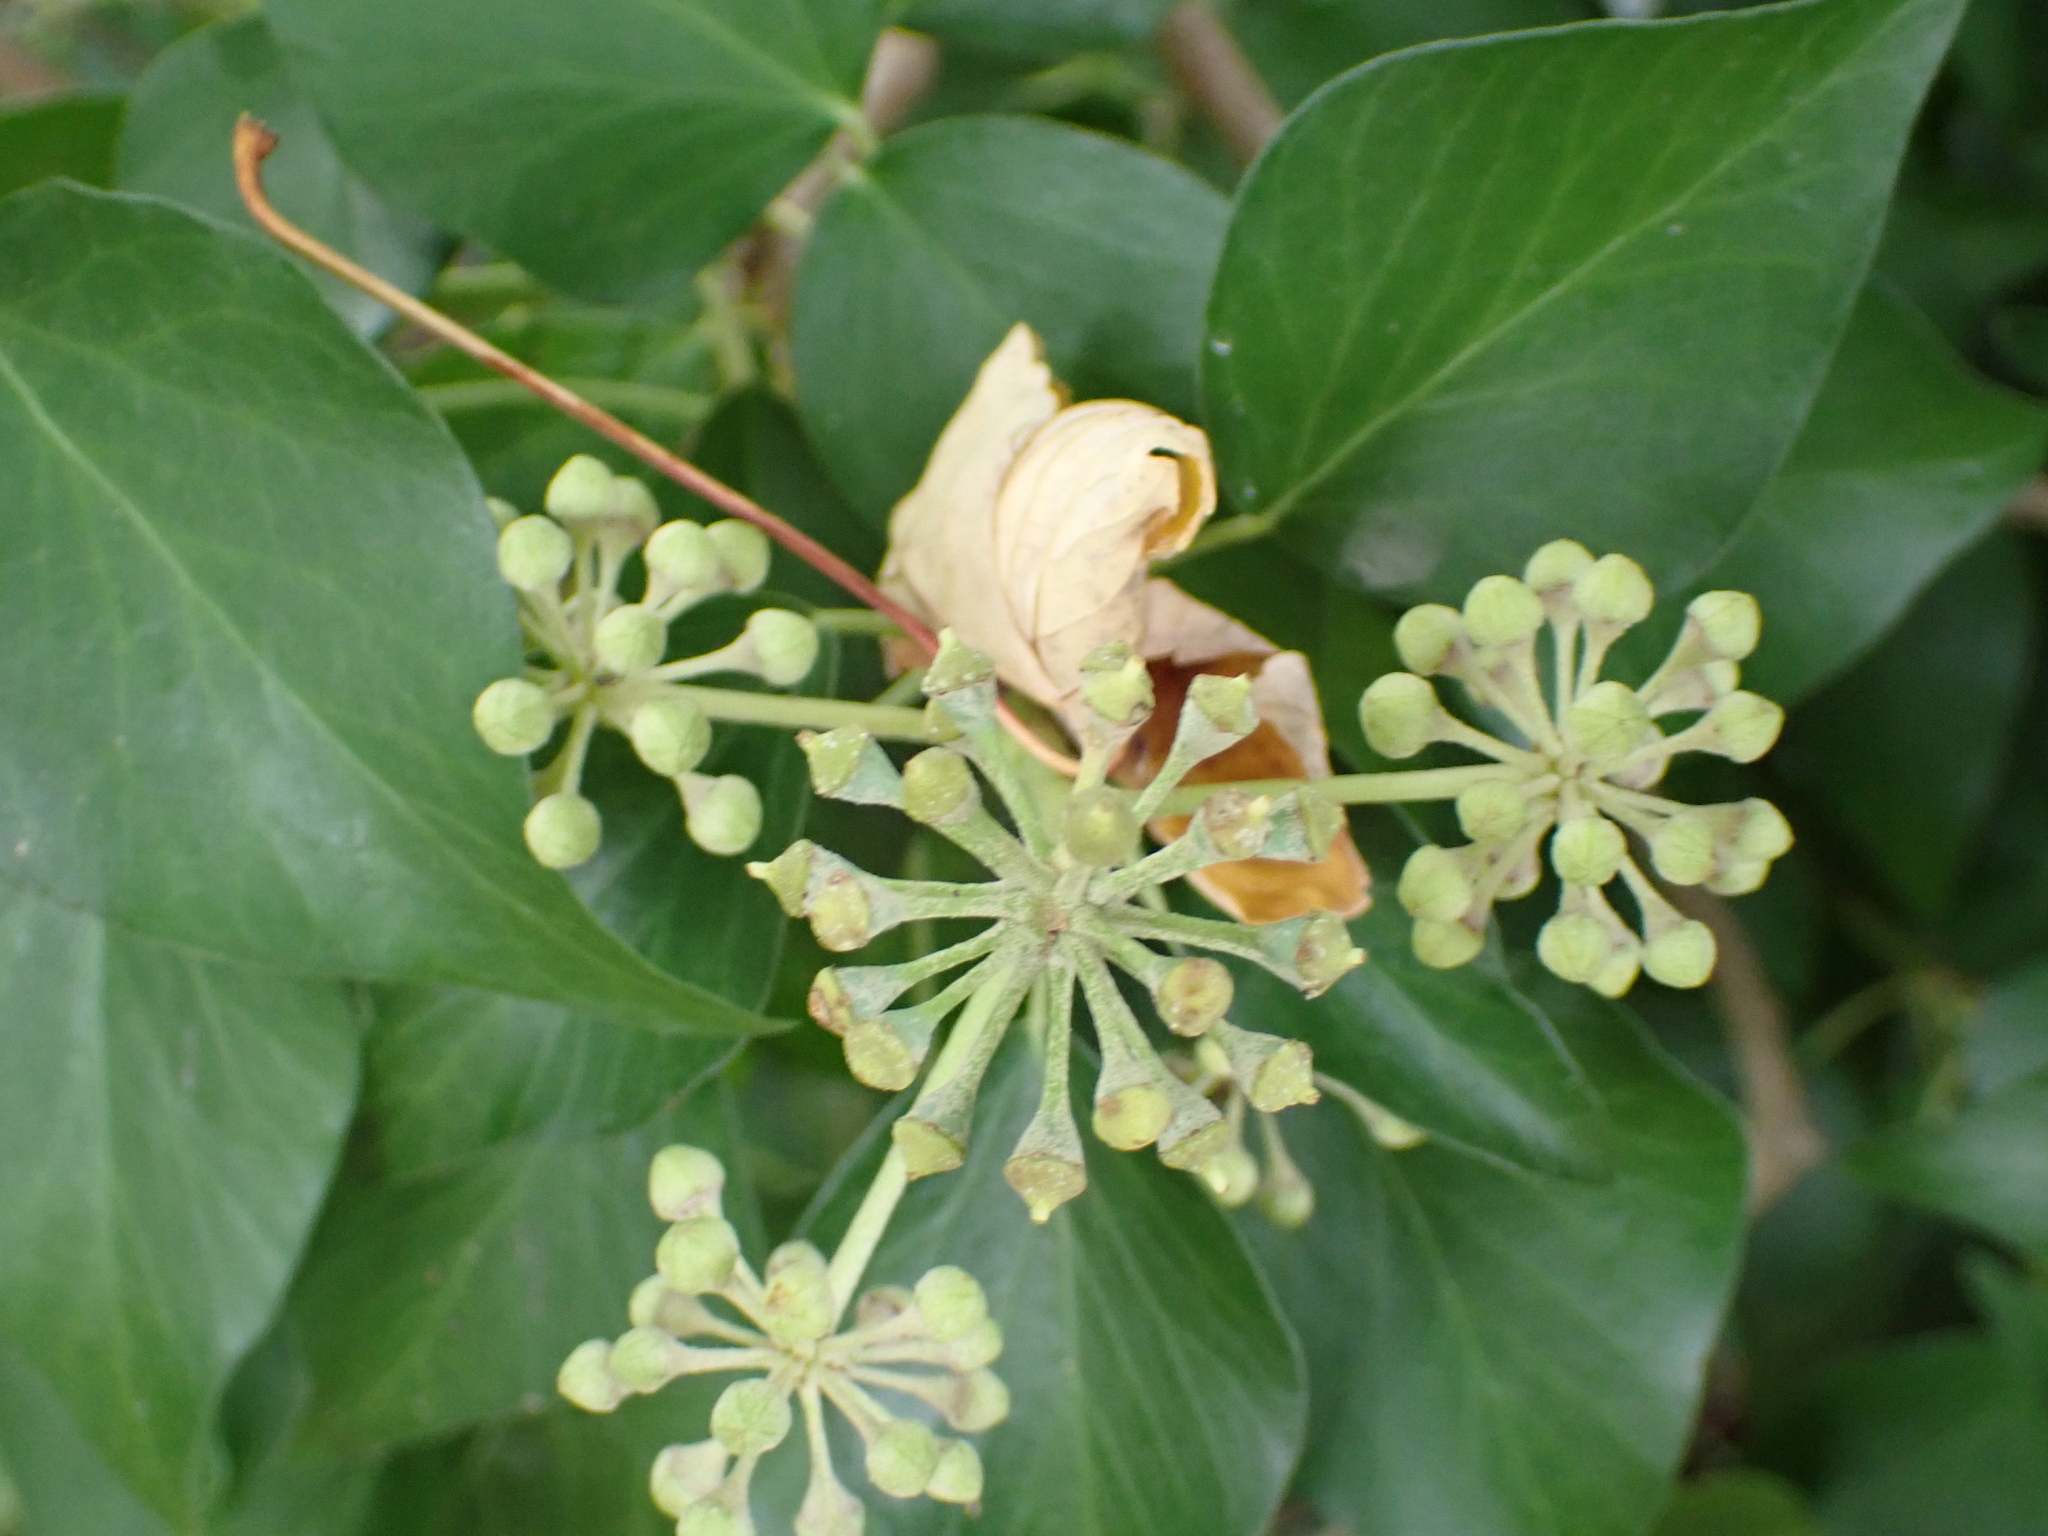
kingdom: Plantae
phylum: Tracheophyta
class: Magnoliopsida
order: Apiales
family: Araliaceae
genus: Hedera
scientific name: Hedera helix
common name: Ivy
